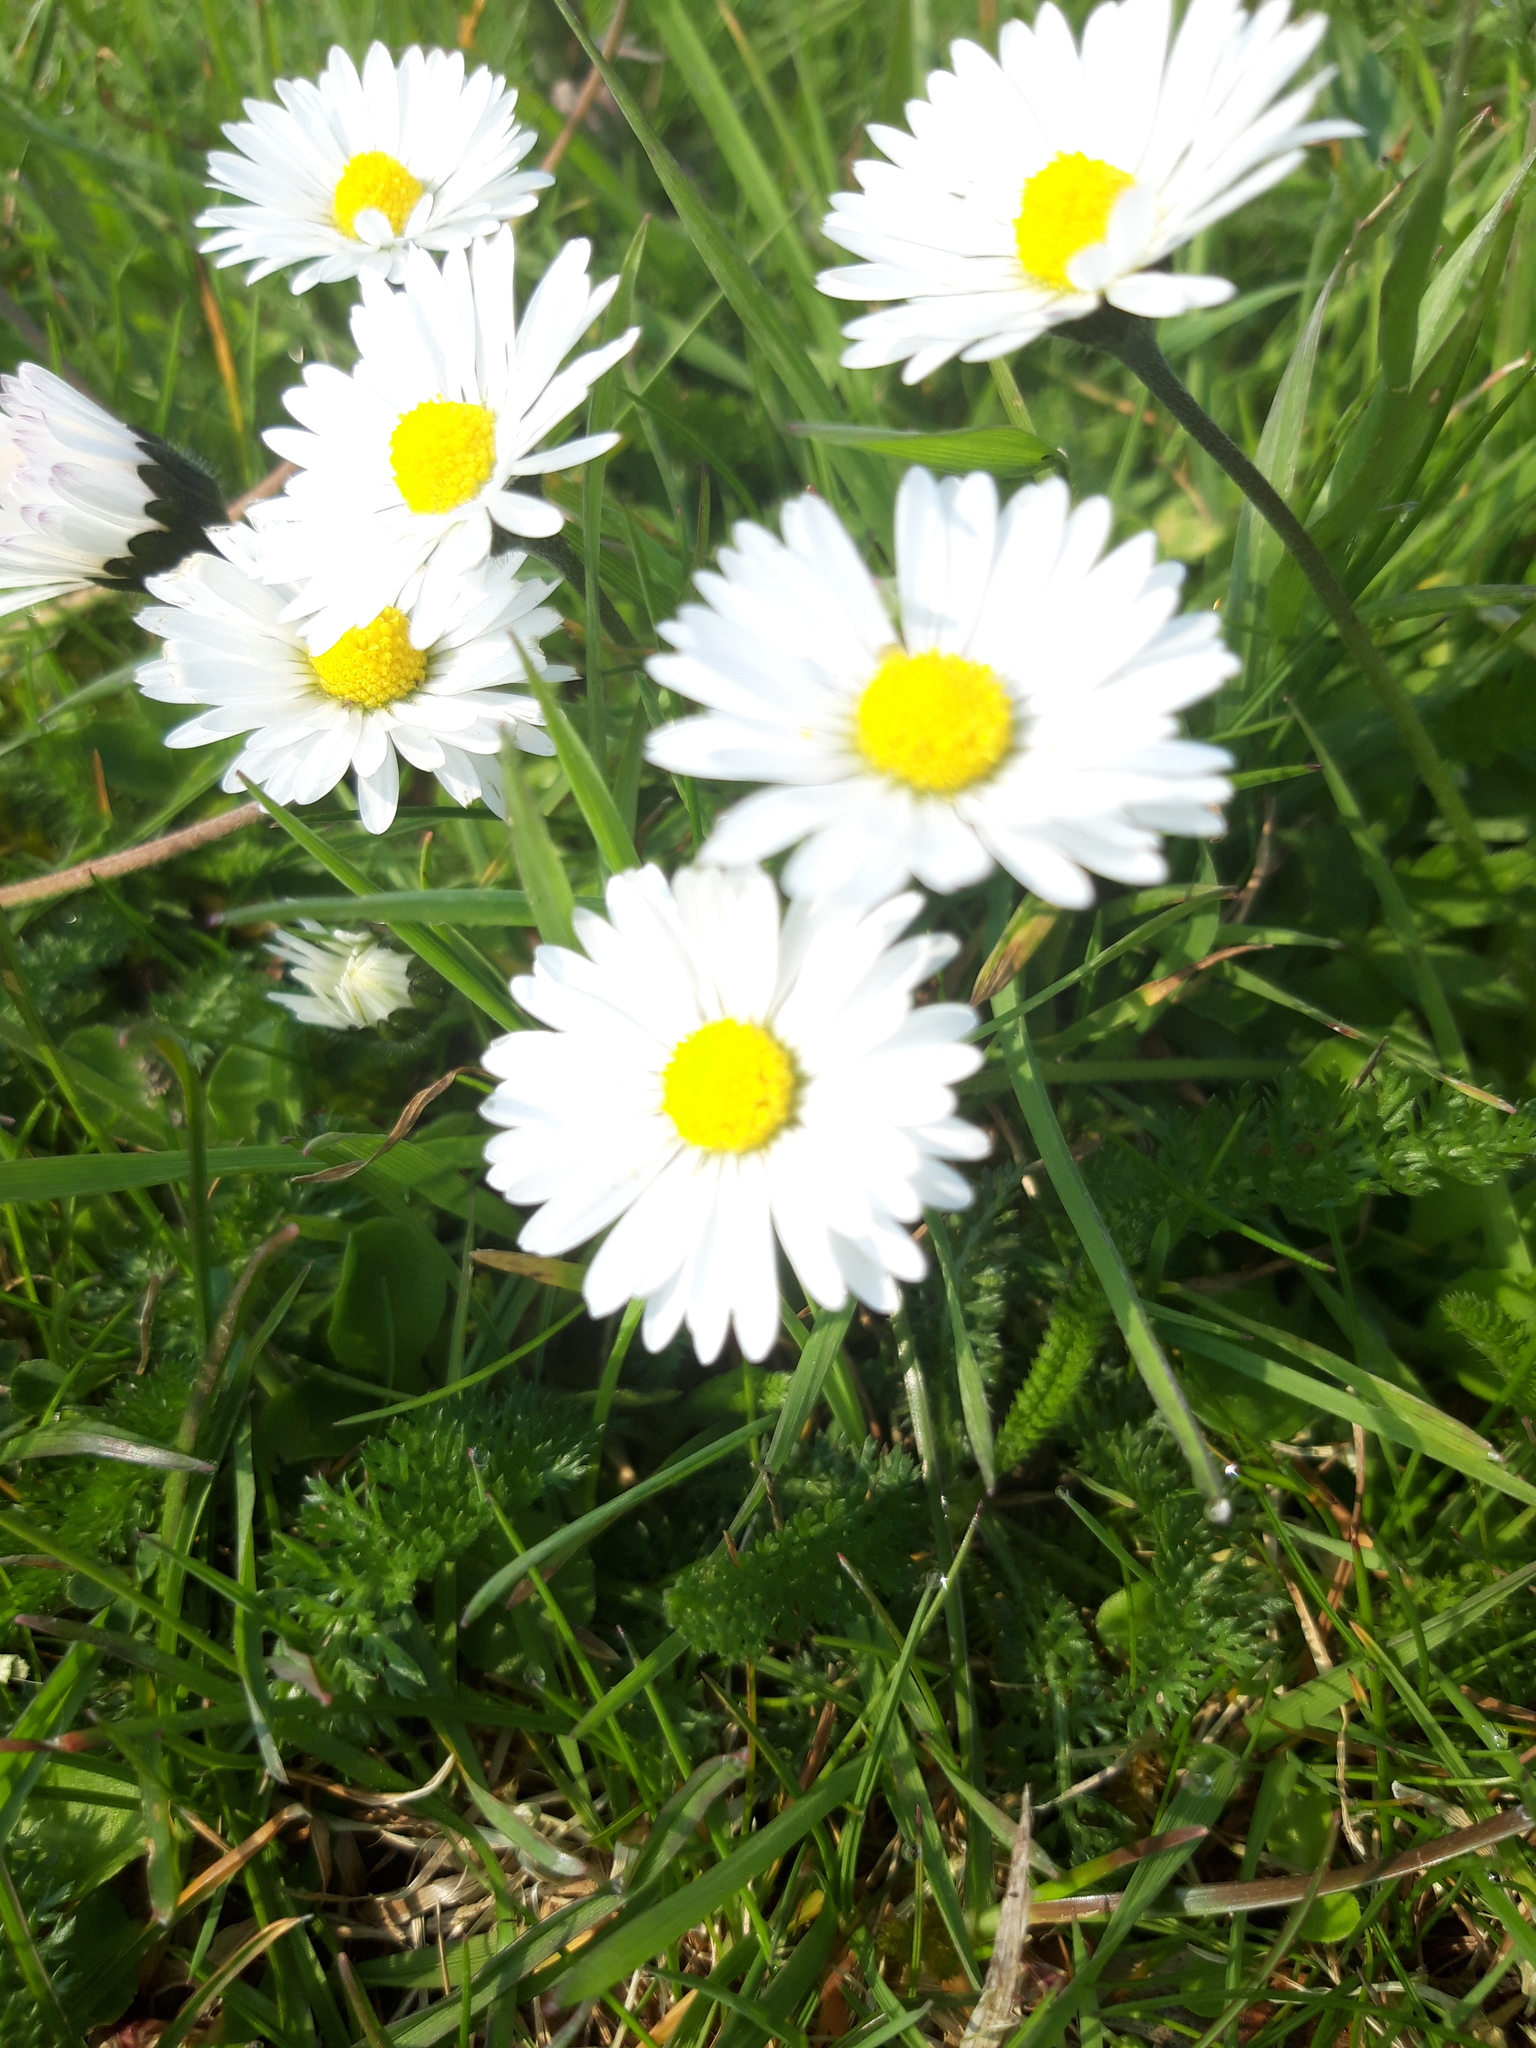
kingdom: Plantae
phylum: Tracheophyta
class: Magnoliopsida
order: Asterales
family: Asteraceae
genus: Bellis
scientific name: Bellis perennis
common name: Lawndaisy
